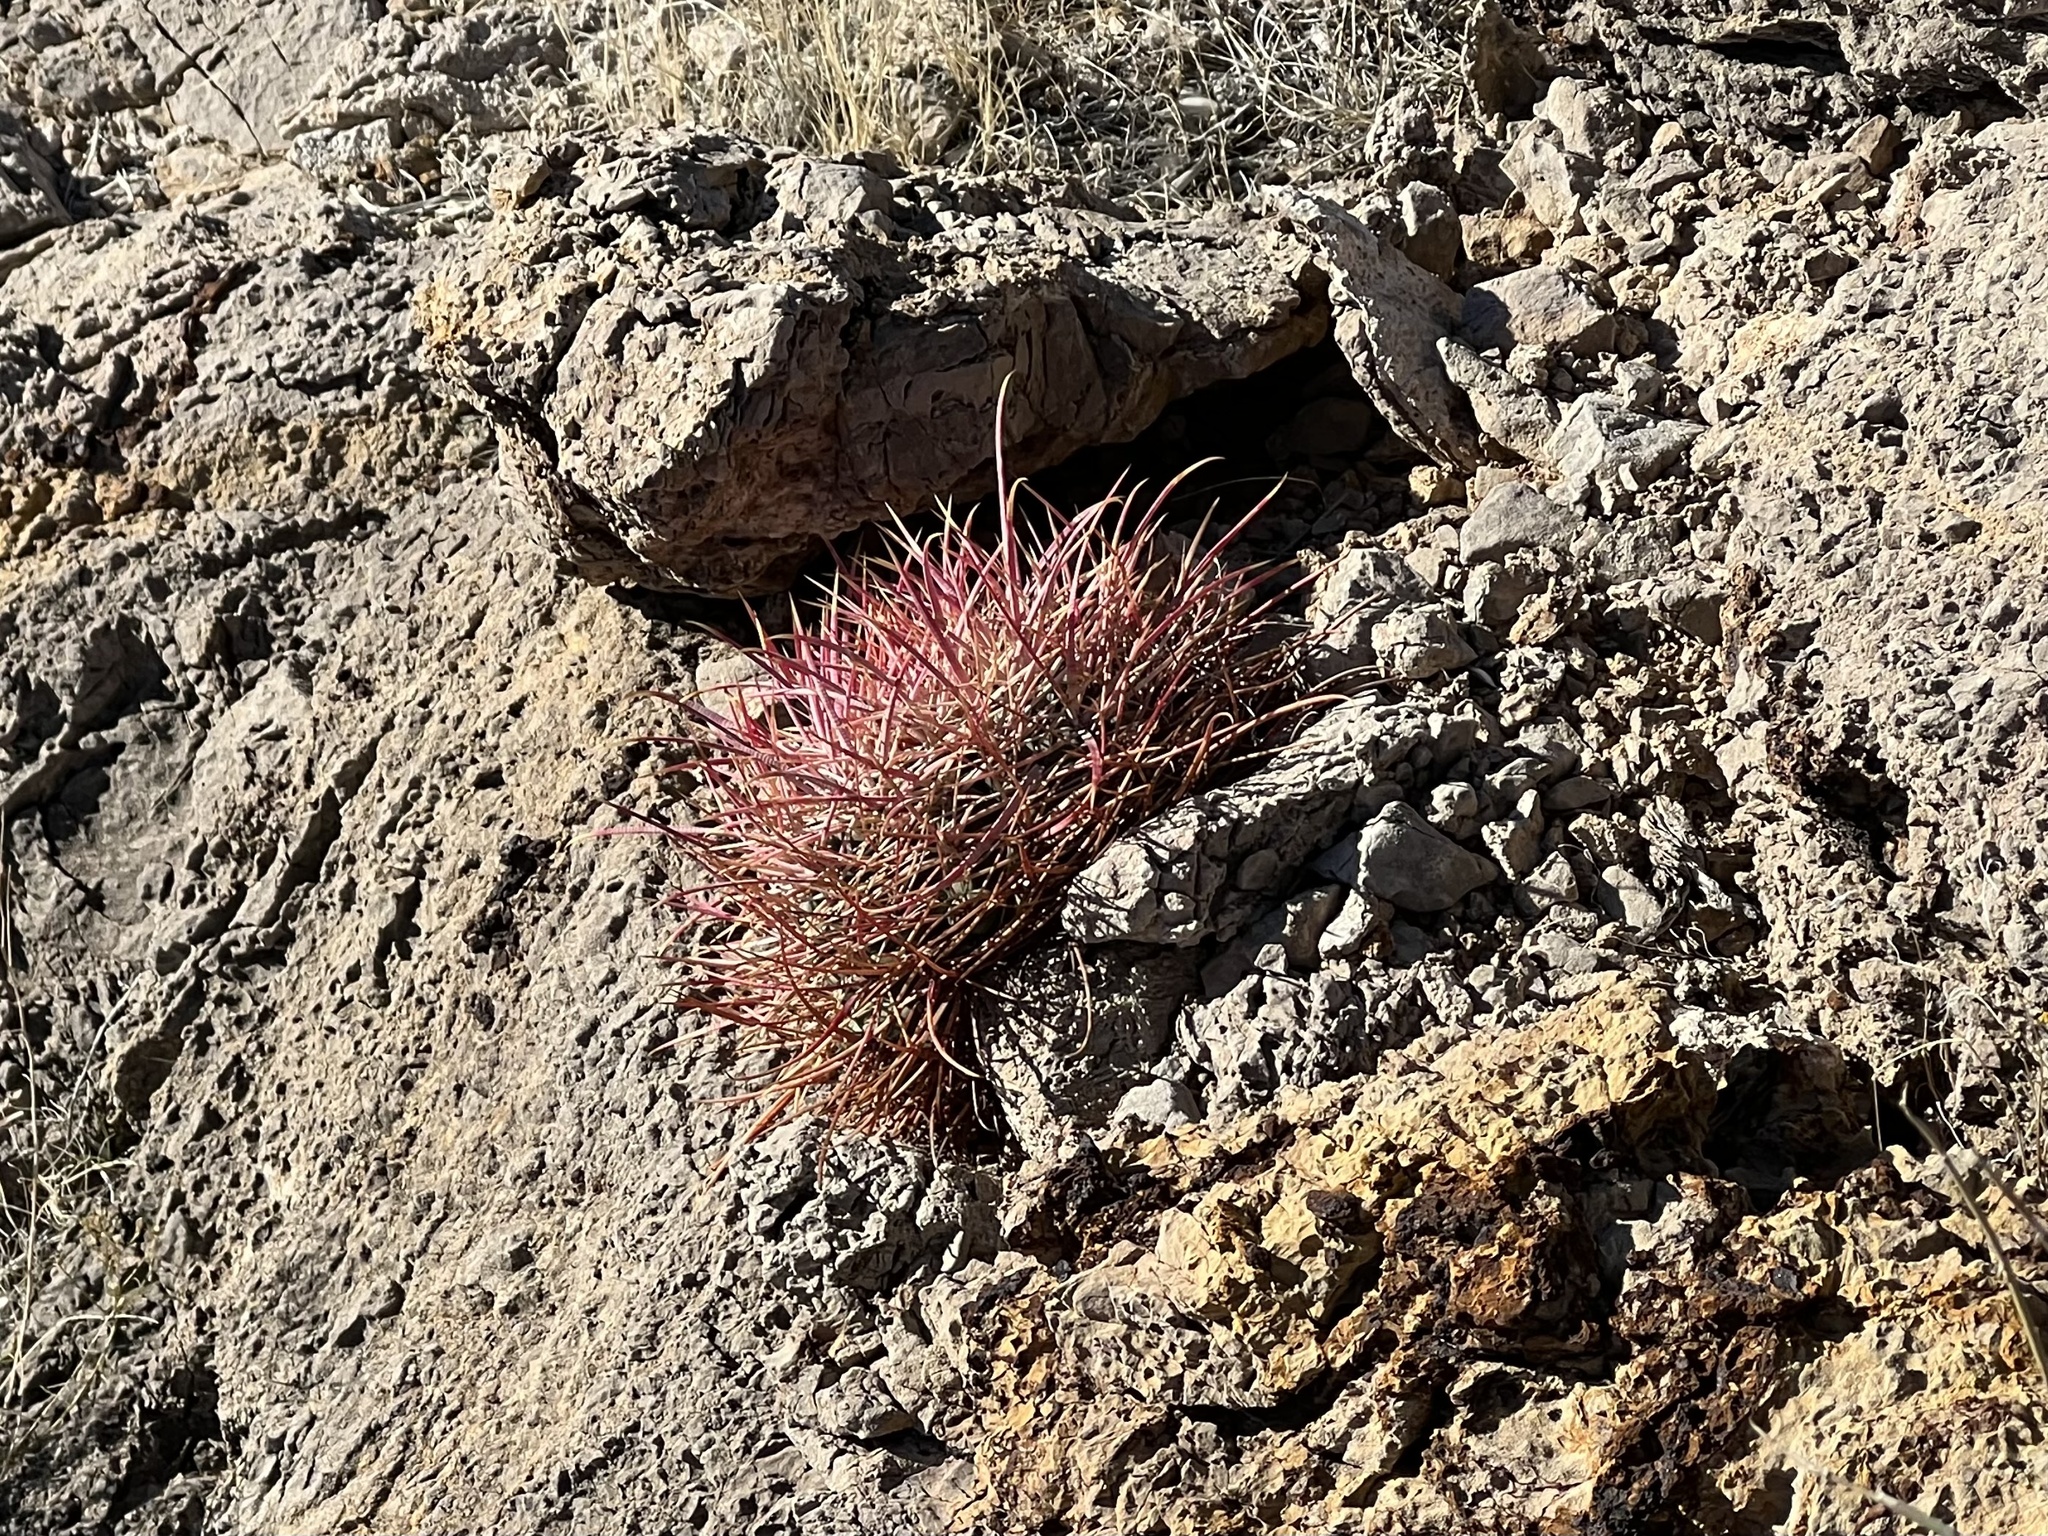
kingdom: Plantae
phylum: Tracheophyta
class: Magnoliopsida
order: Caryophyllales
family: Cactaceae
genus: Ferocactus
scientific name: Ferocactus cylindraceus
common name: California barrel cactus
